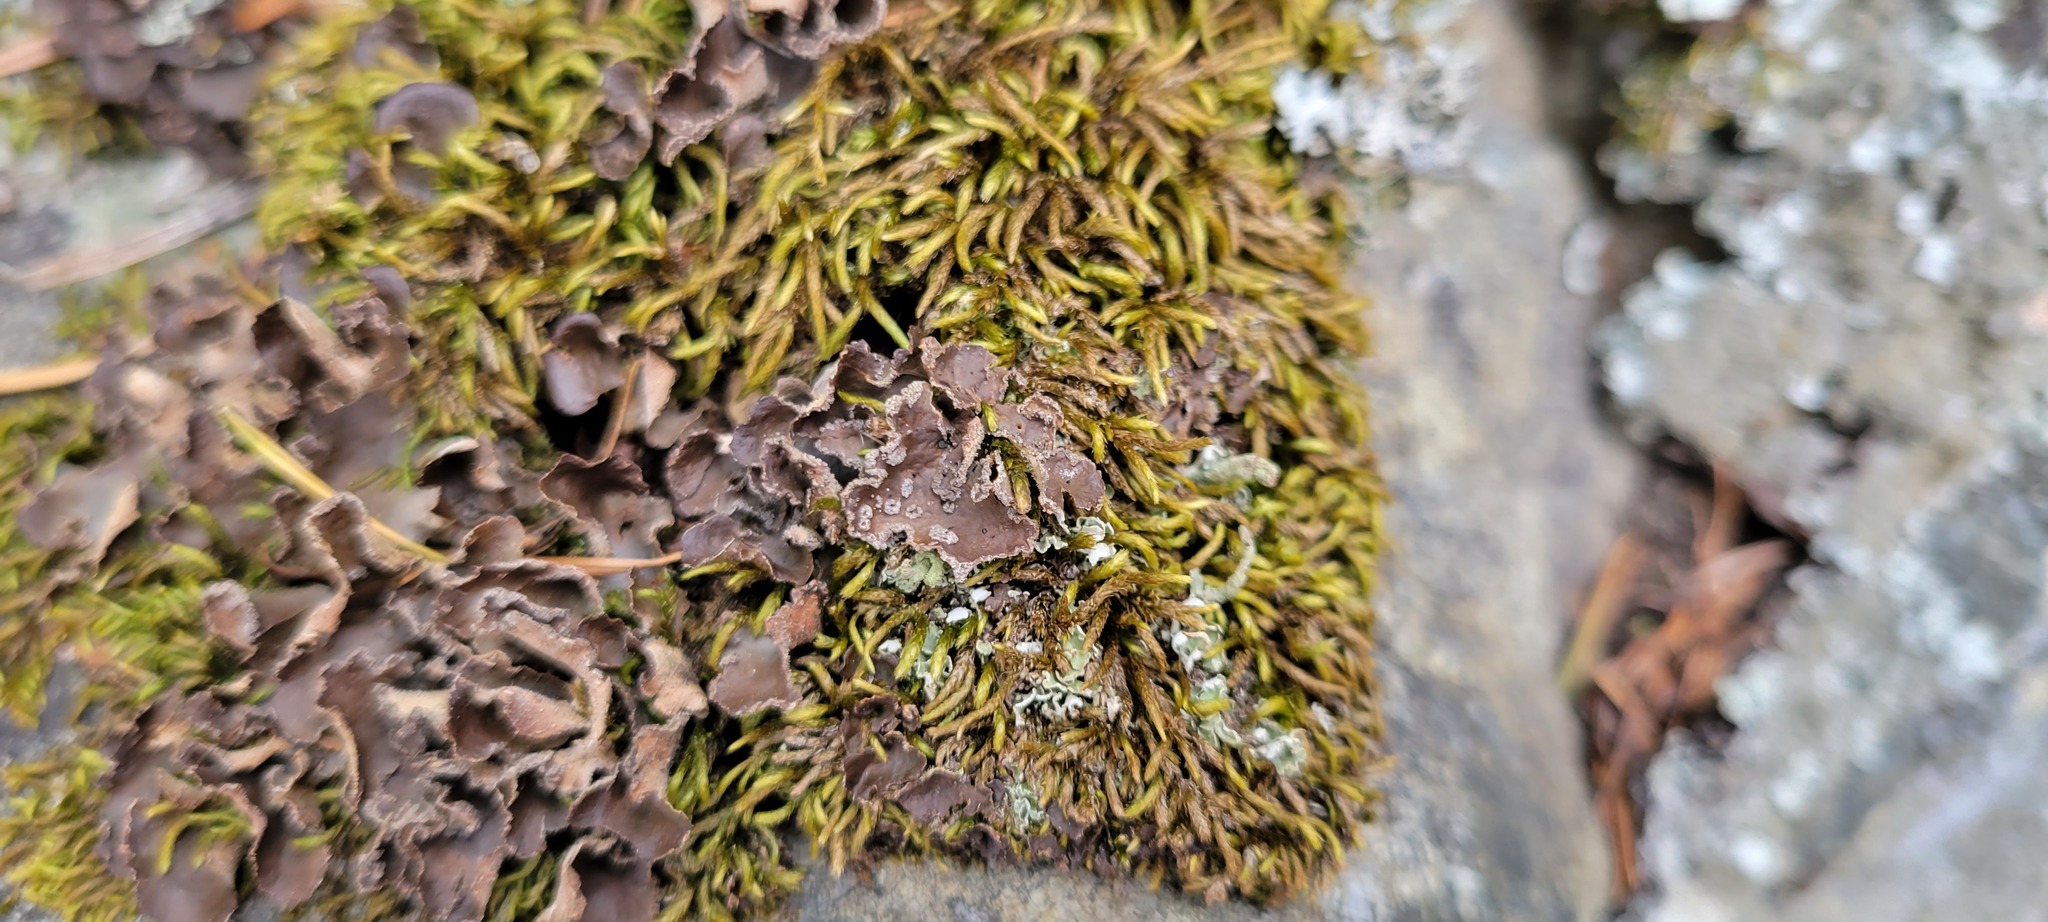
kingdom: Fungi
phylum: Ascomycota
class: Lecanoromycetes
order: Peltigerales
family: Lobariaceae
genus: Sticta
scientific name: Sticta limbata
